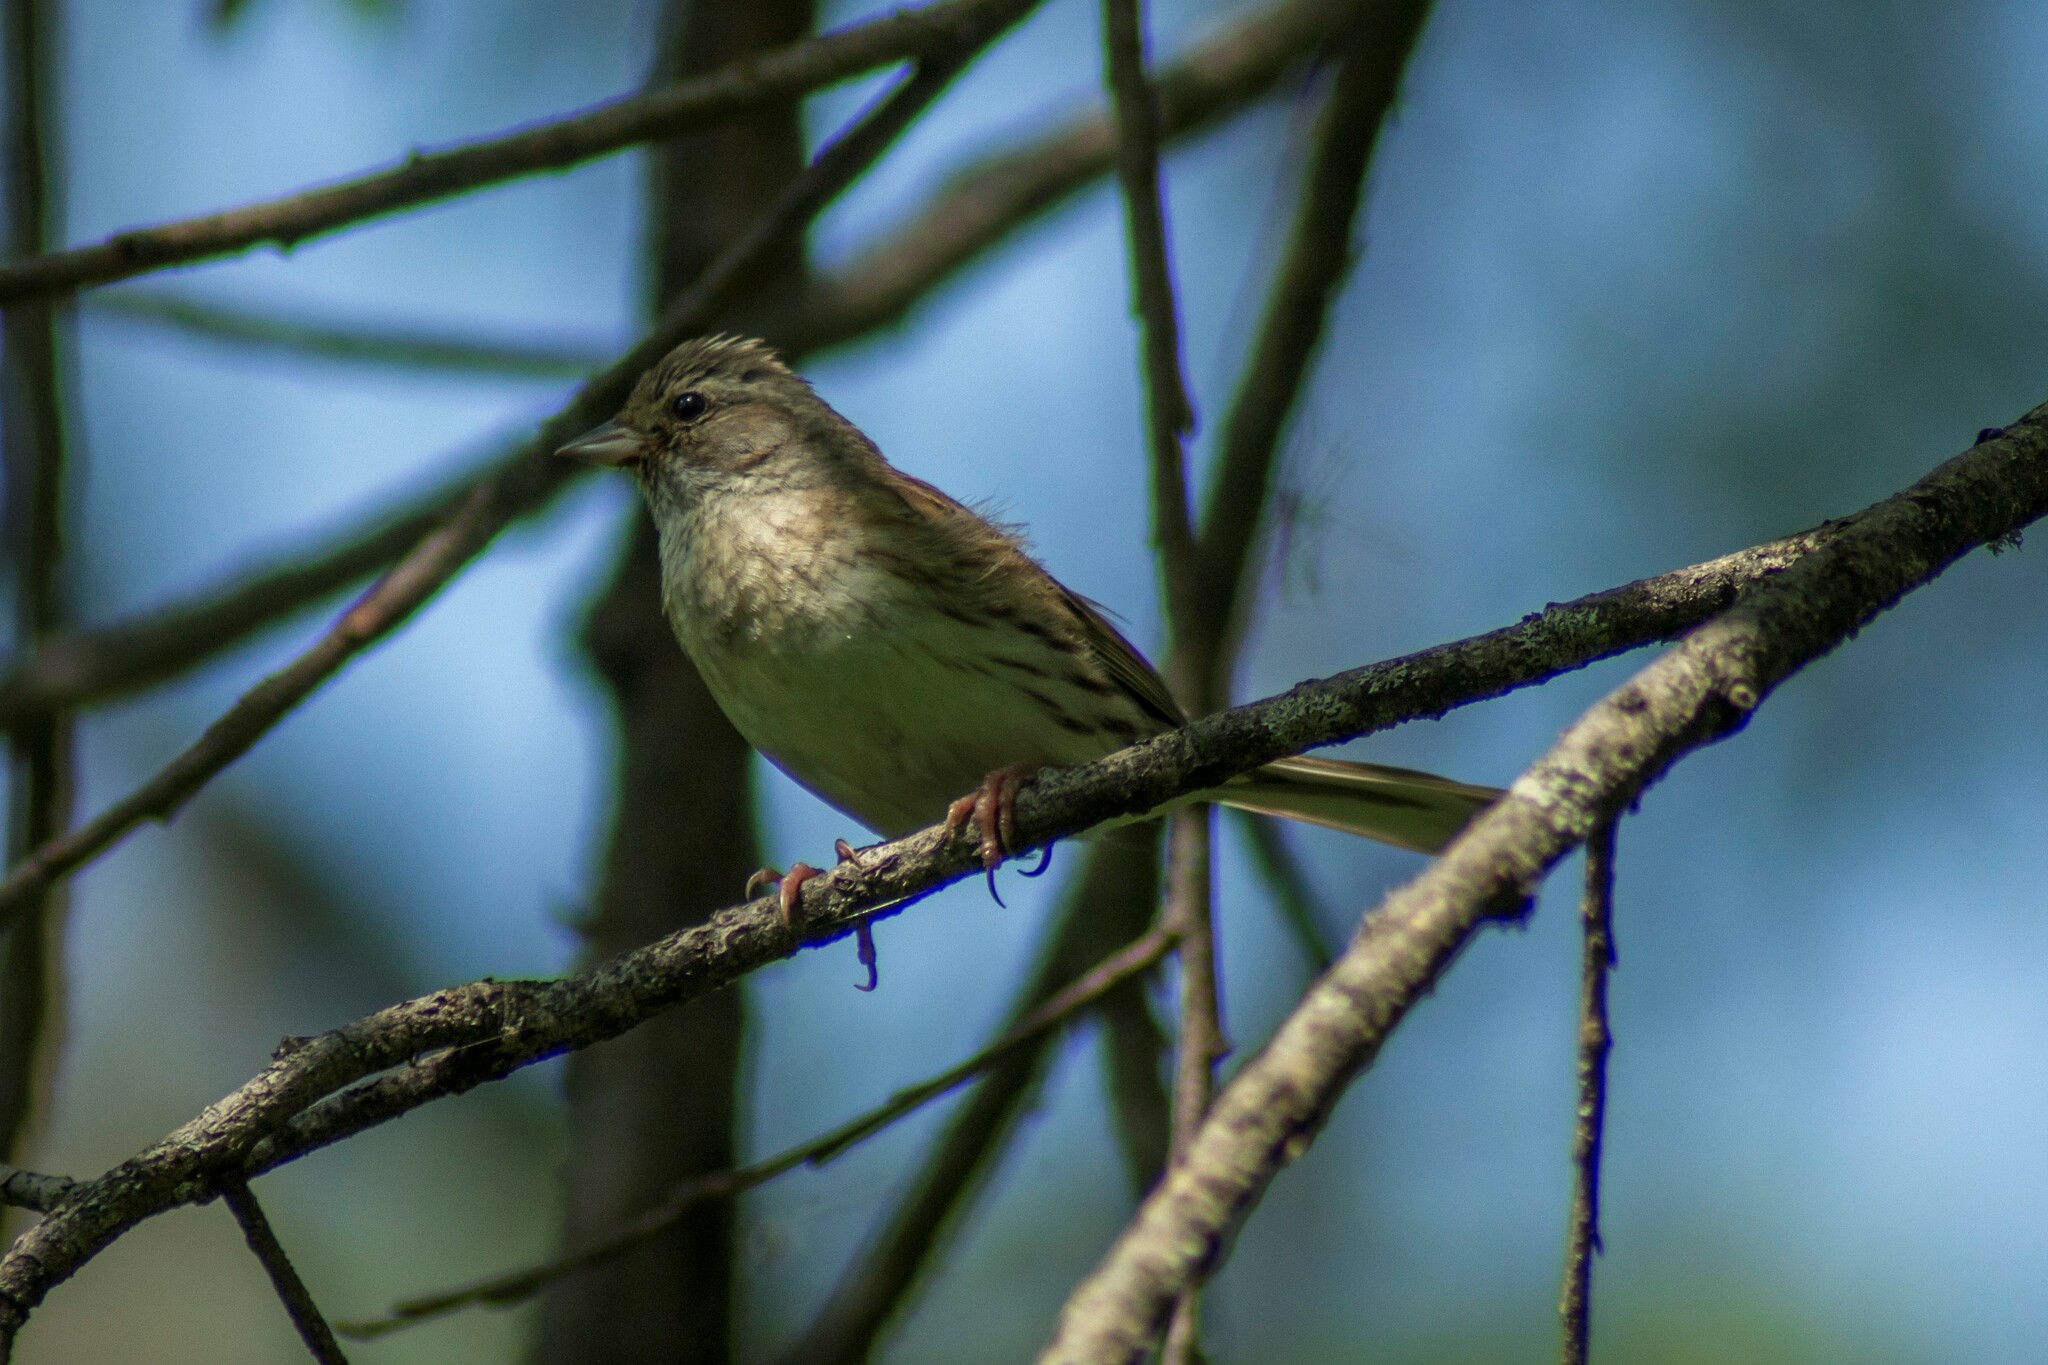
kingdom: Animalia
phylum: Chordata
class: Aves
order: Passeriformes
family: Emberizidae
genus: Emberiza
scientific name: Emberiza spodocephala
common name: Black-faced bunting
